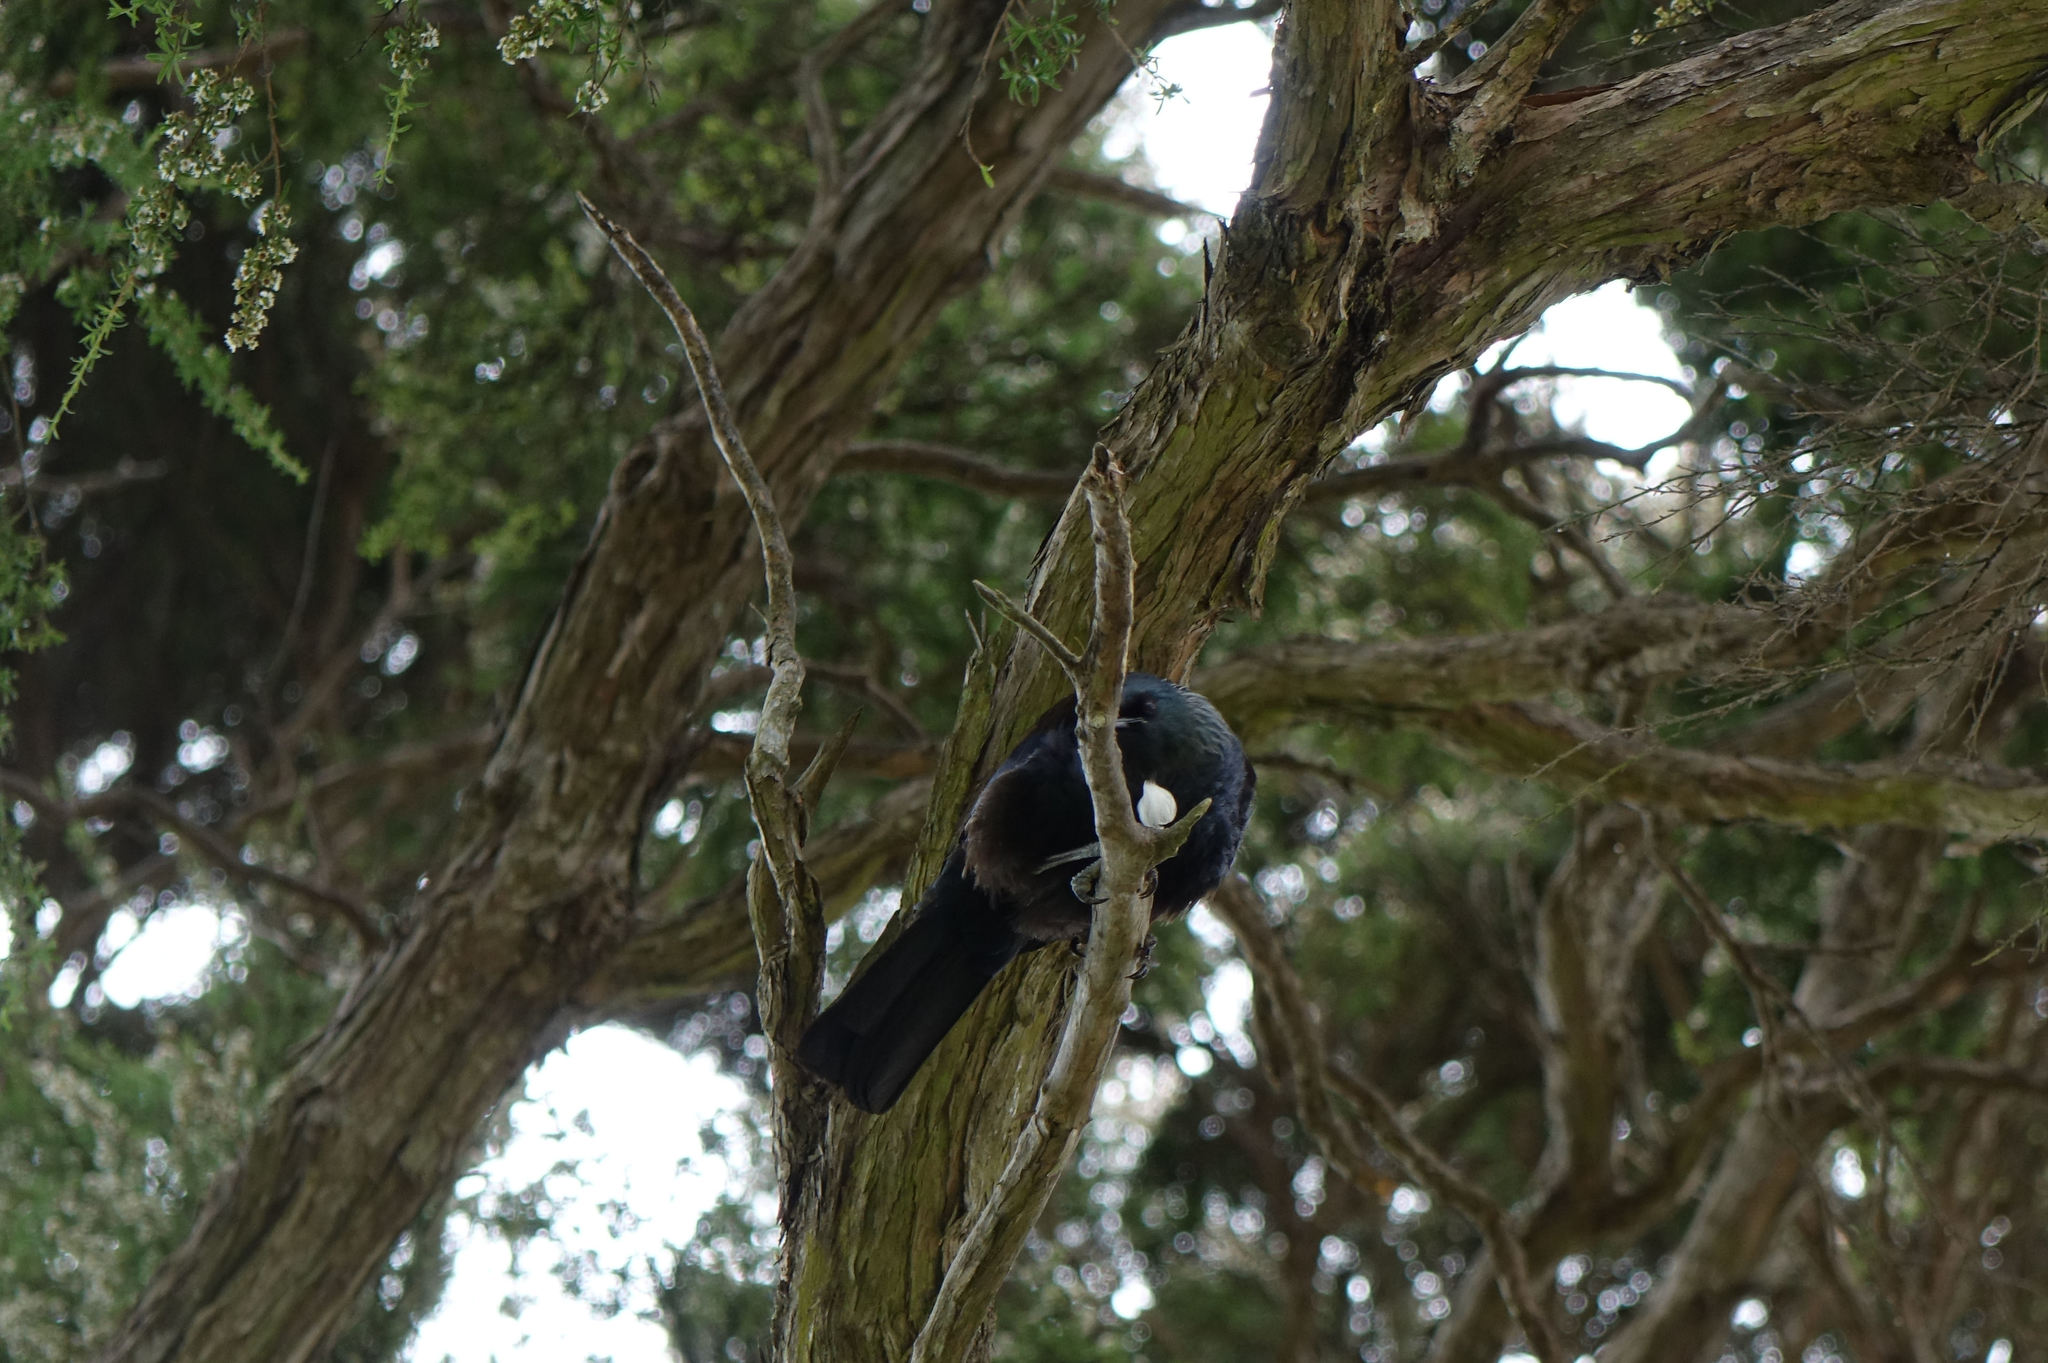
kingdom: Animalia
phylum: Chordata
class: Aves
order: Passeriformes
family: Meliphagidae
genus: Prosthemadera
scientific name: Prosthemadera novaeseelandiae
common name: Tui
